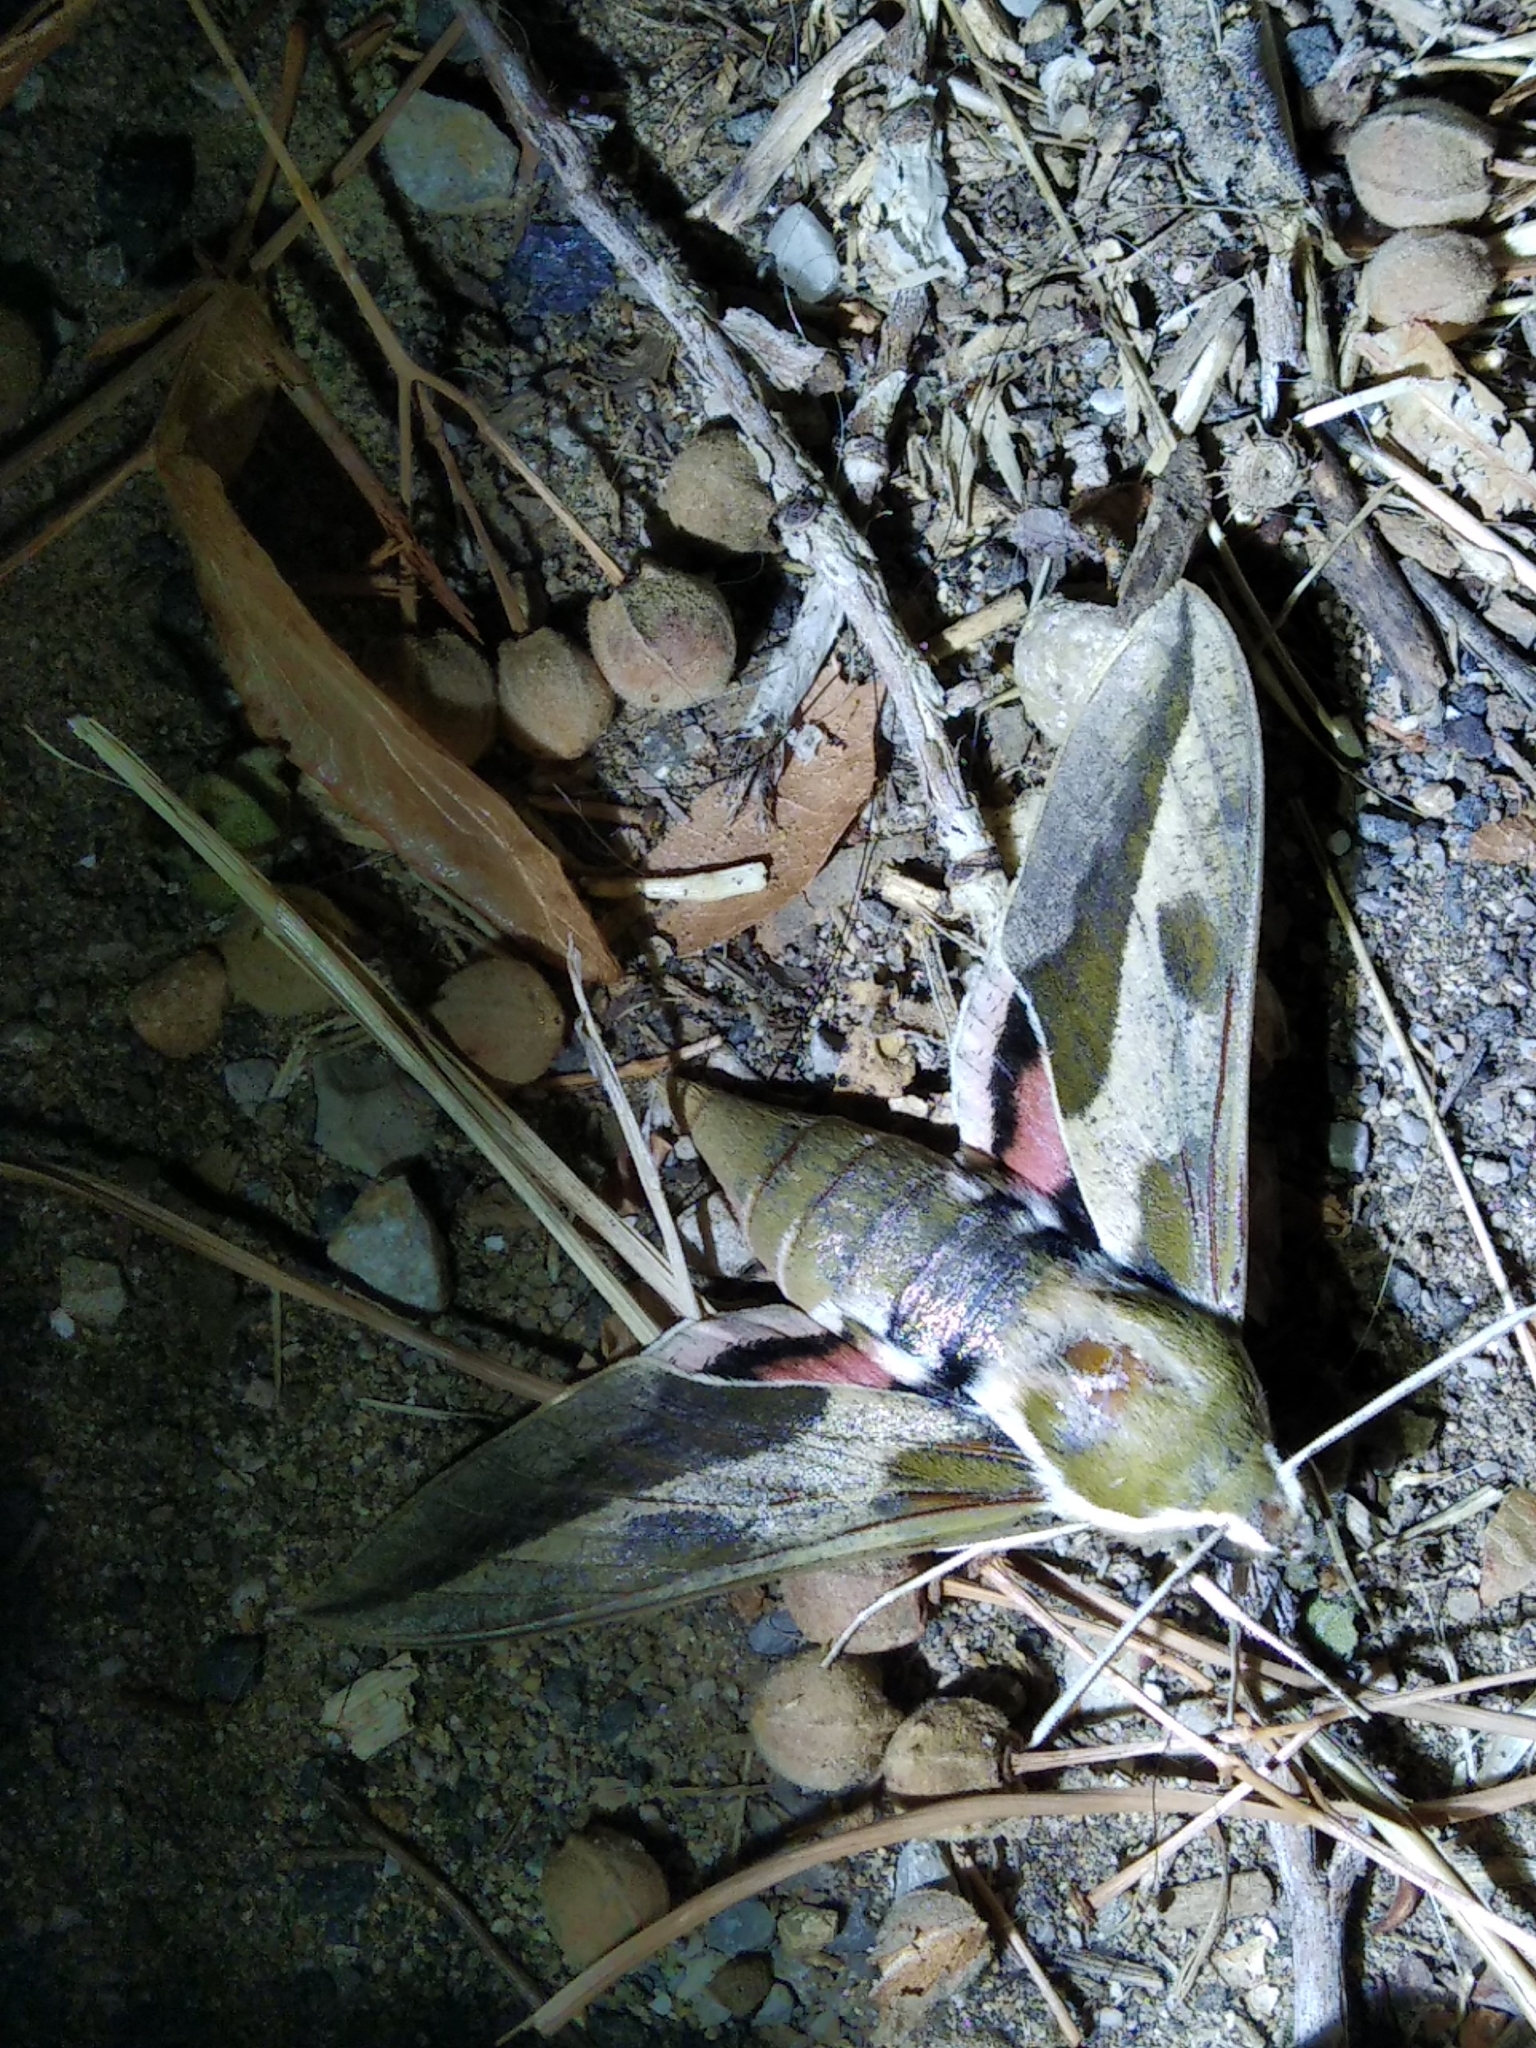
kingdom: Animalia
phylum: Arthropoda
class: Insecta
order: Lepidoptera
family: Sphingidae
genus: Hyles
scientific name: Hyles euphorbiae
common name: Spurge hawk-moth
